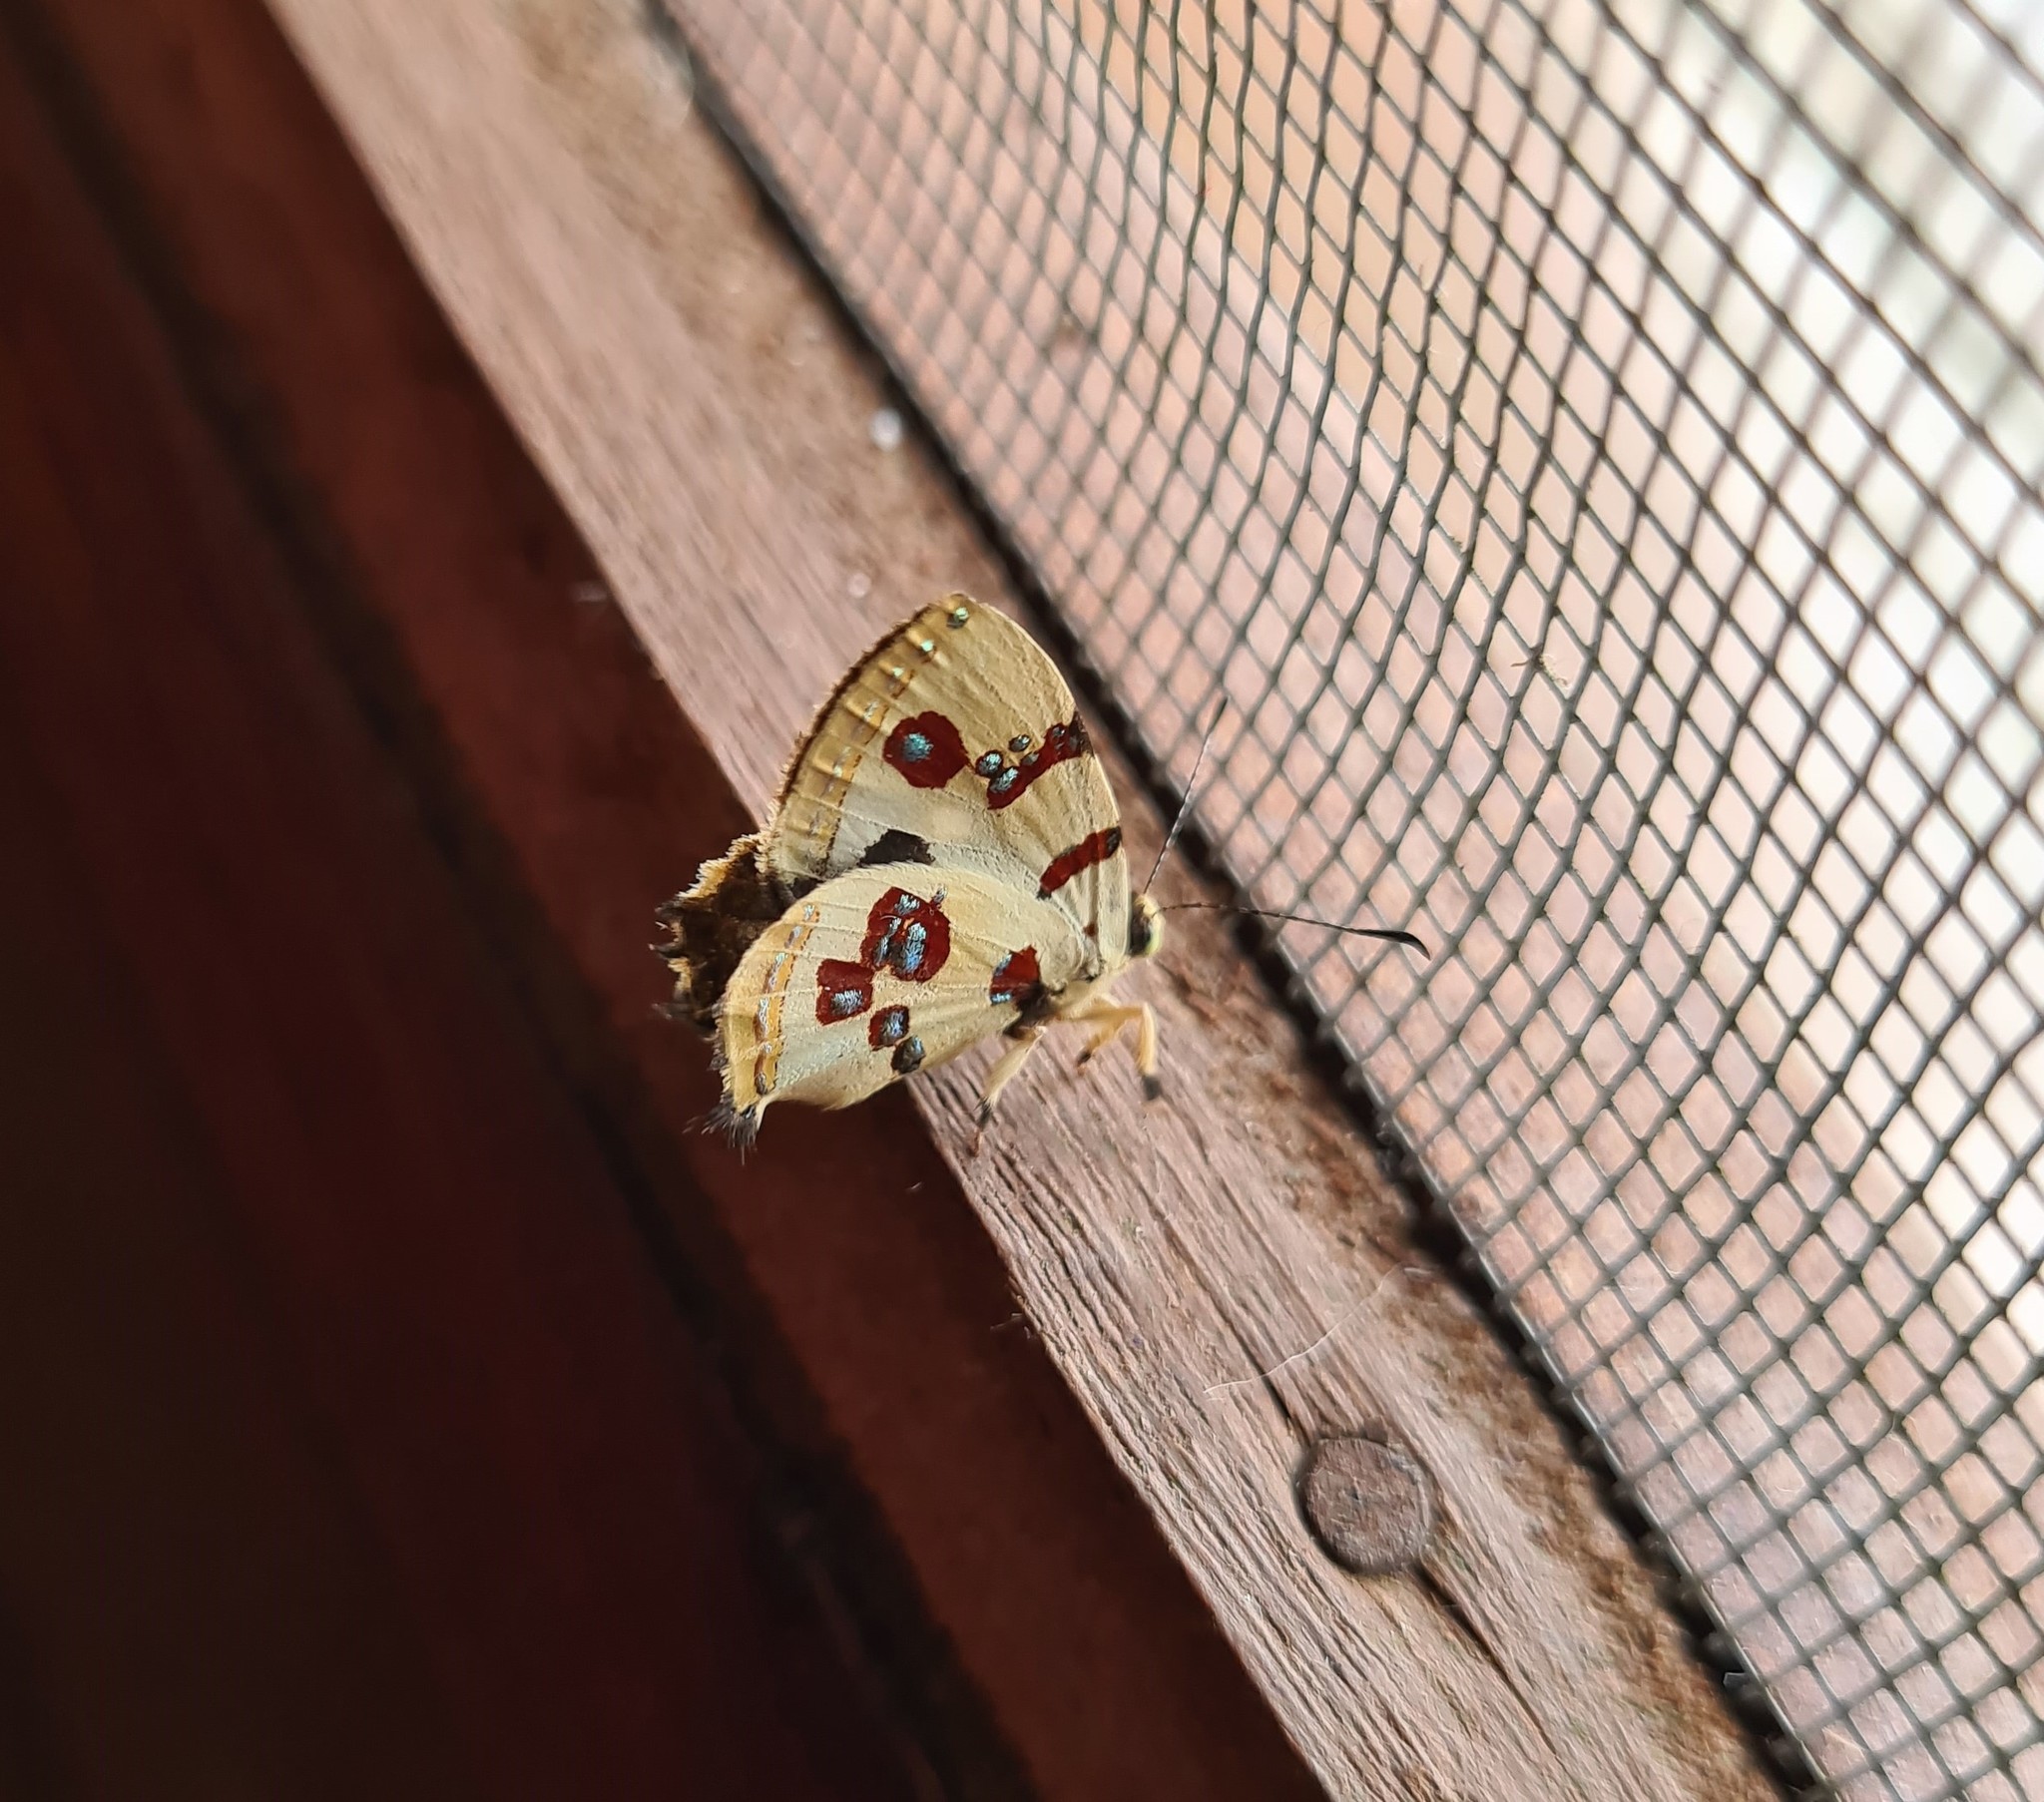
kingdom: Animalia
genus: Anteros
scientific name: Anteros formosus
